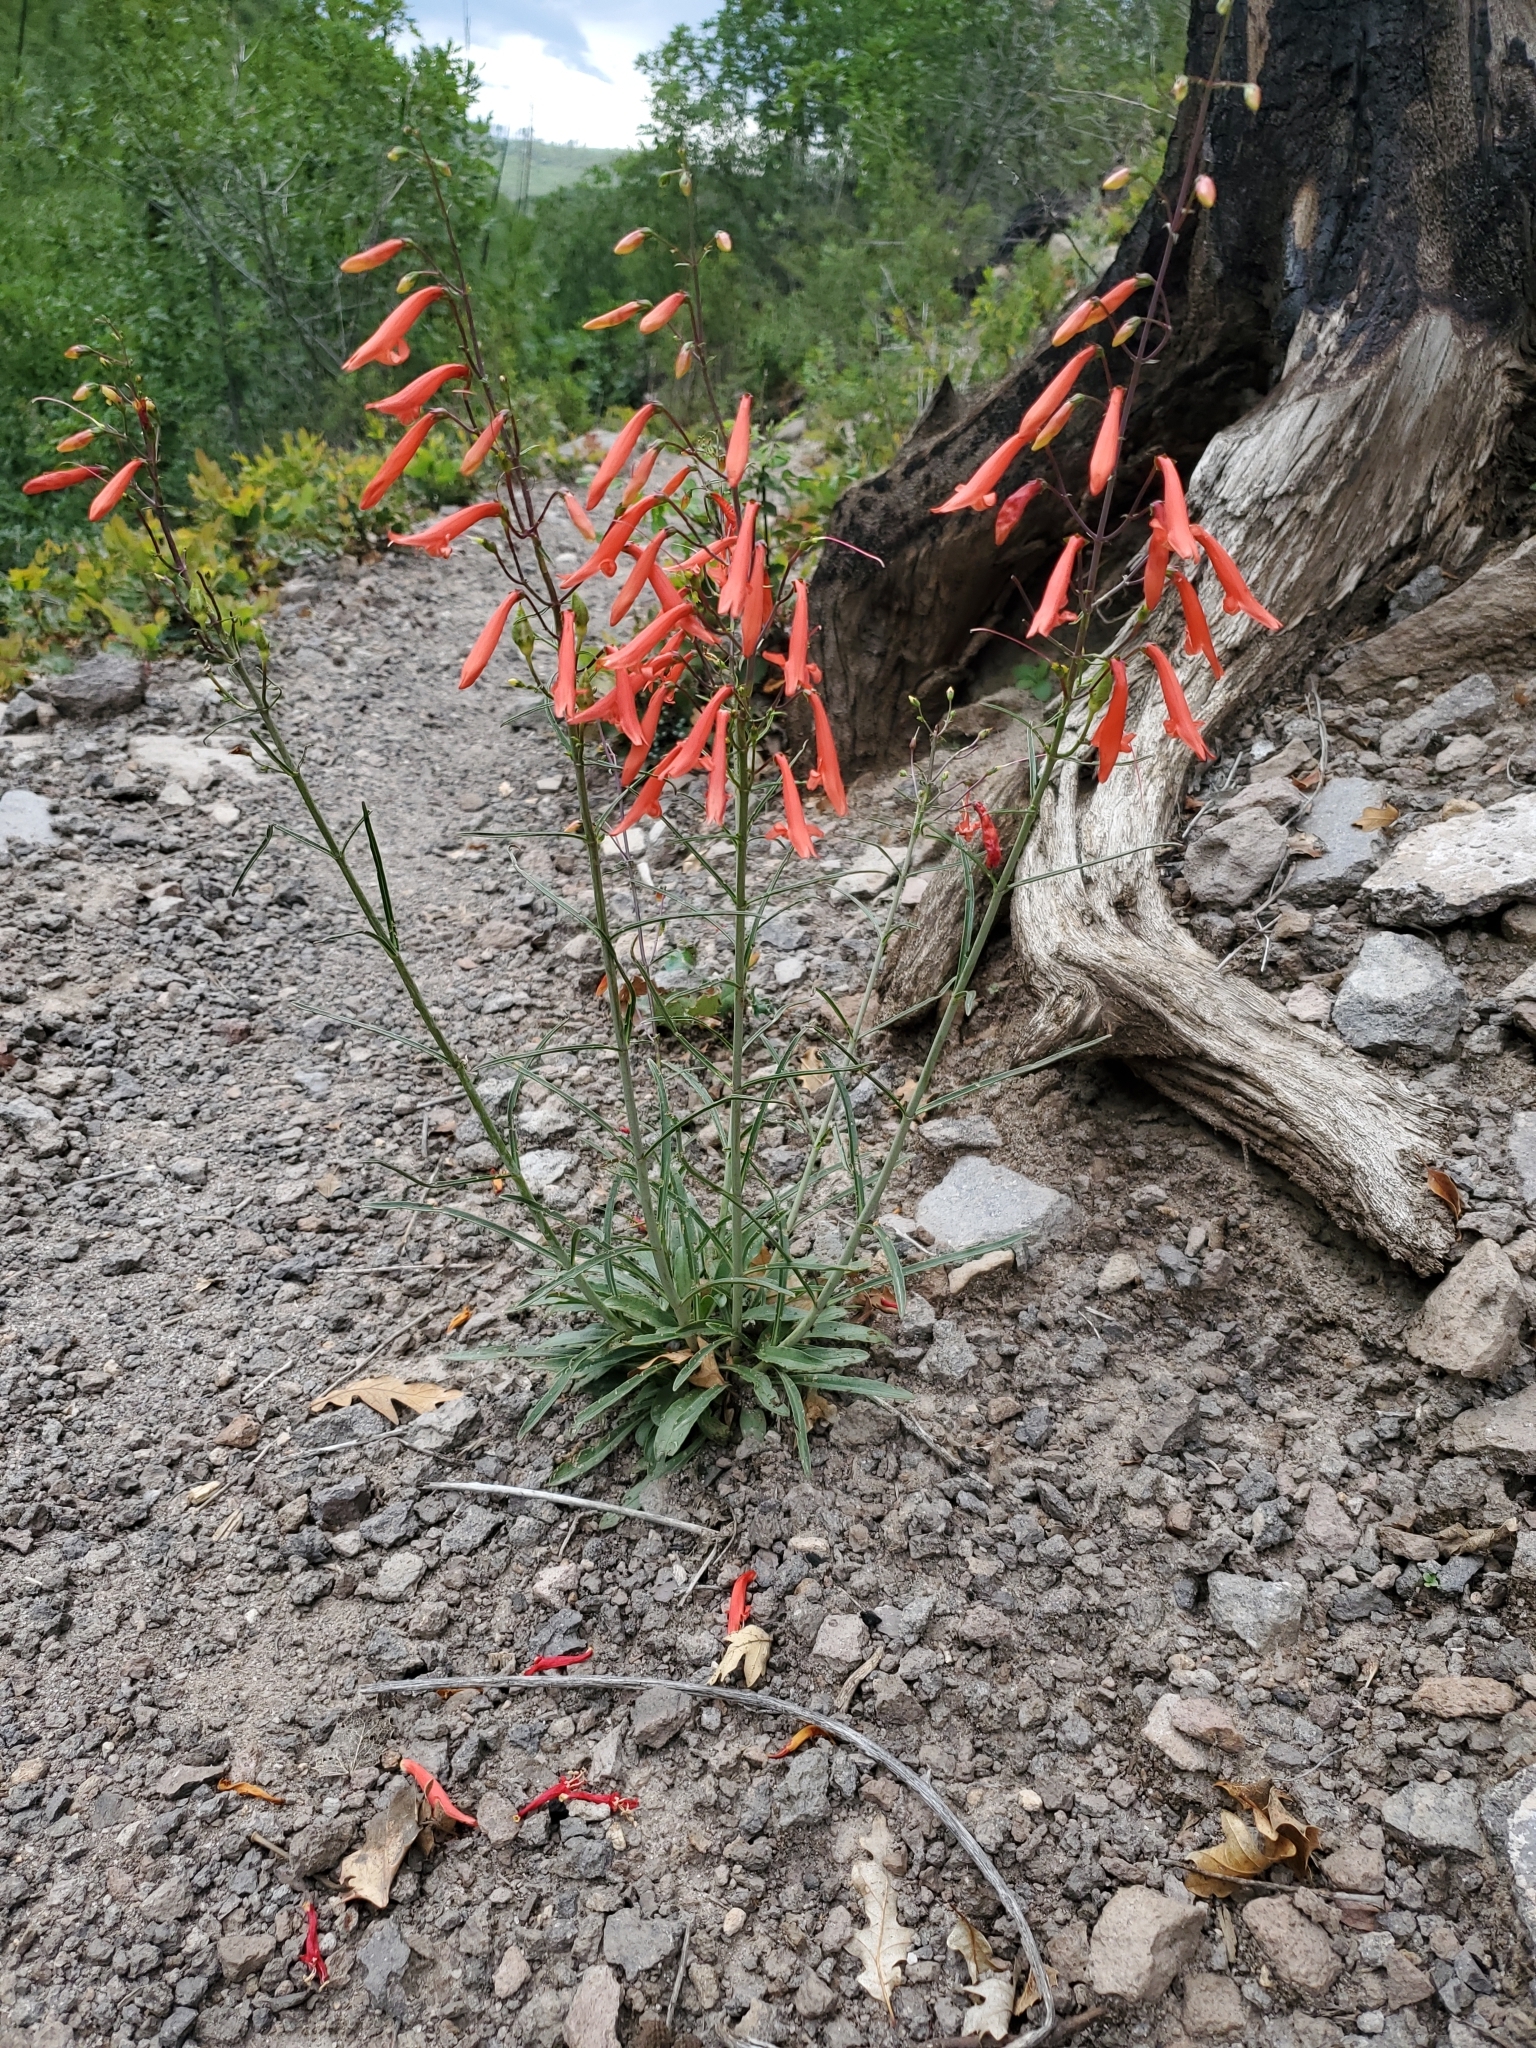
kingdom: Plantae
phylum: Tracheophyta
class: Magnoliopsida
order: Lamiales
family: Plantaginaceae
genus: Penstemon
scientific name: Penstemon barbatus
